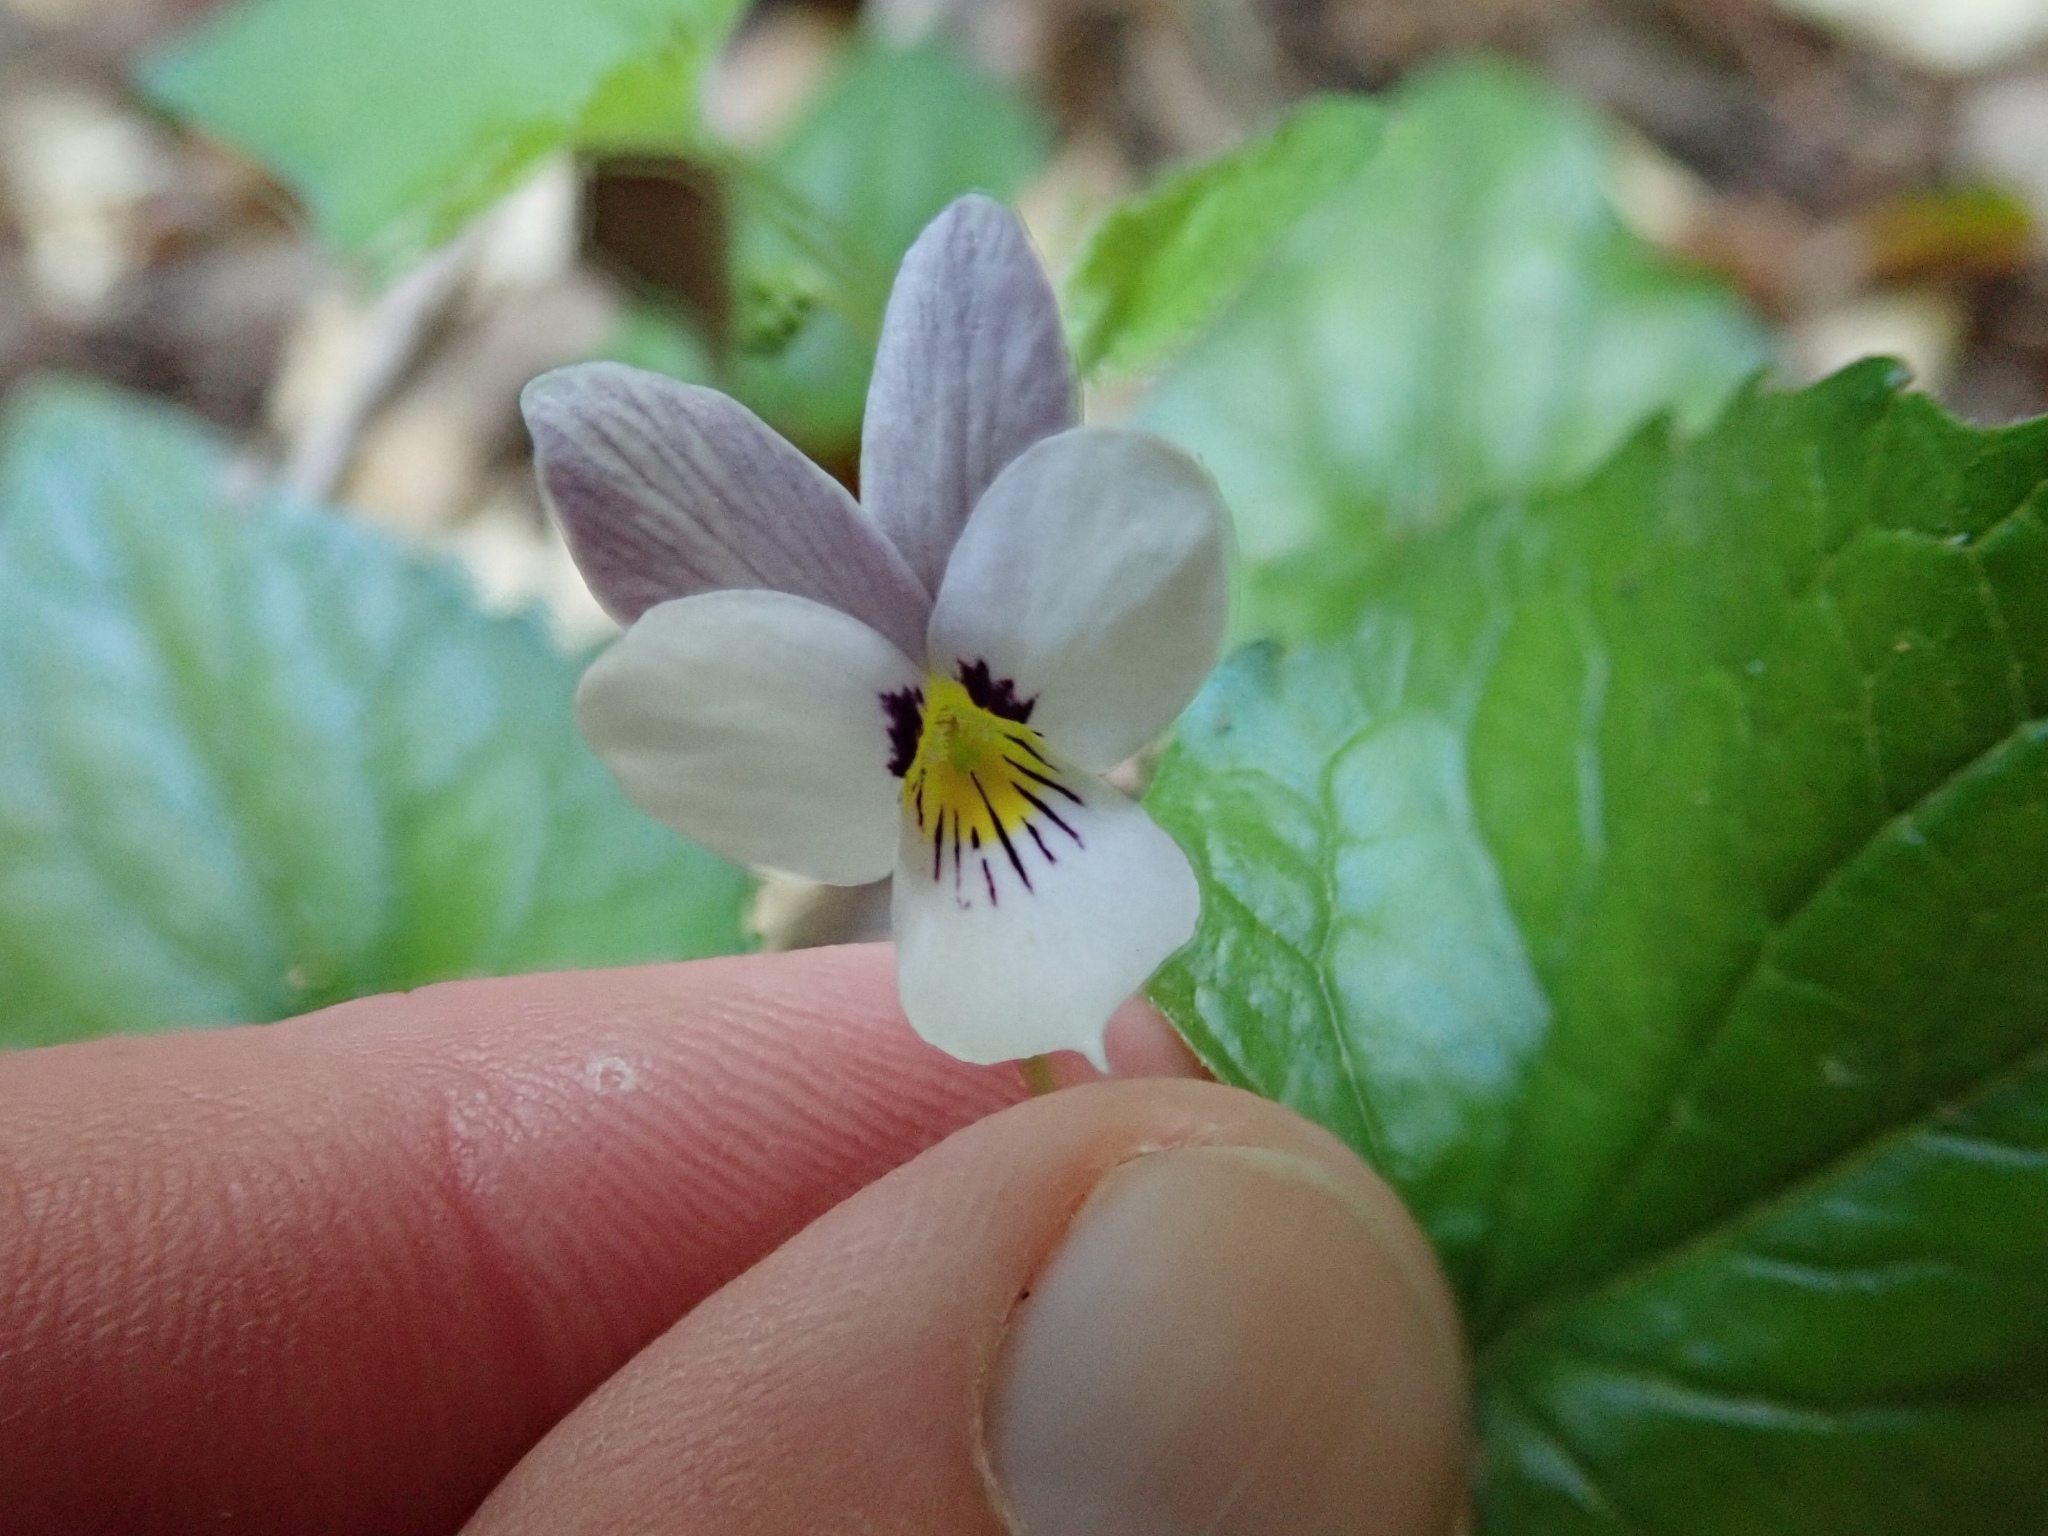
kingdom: Plantae
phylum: Tracheophyta
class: Magnoliopsida
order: Malpighiales
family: Violaceae
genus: Viola
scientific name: Viola ocellata
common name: Western heart's ease
